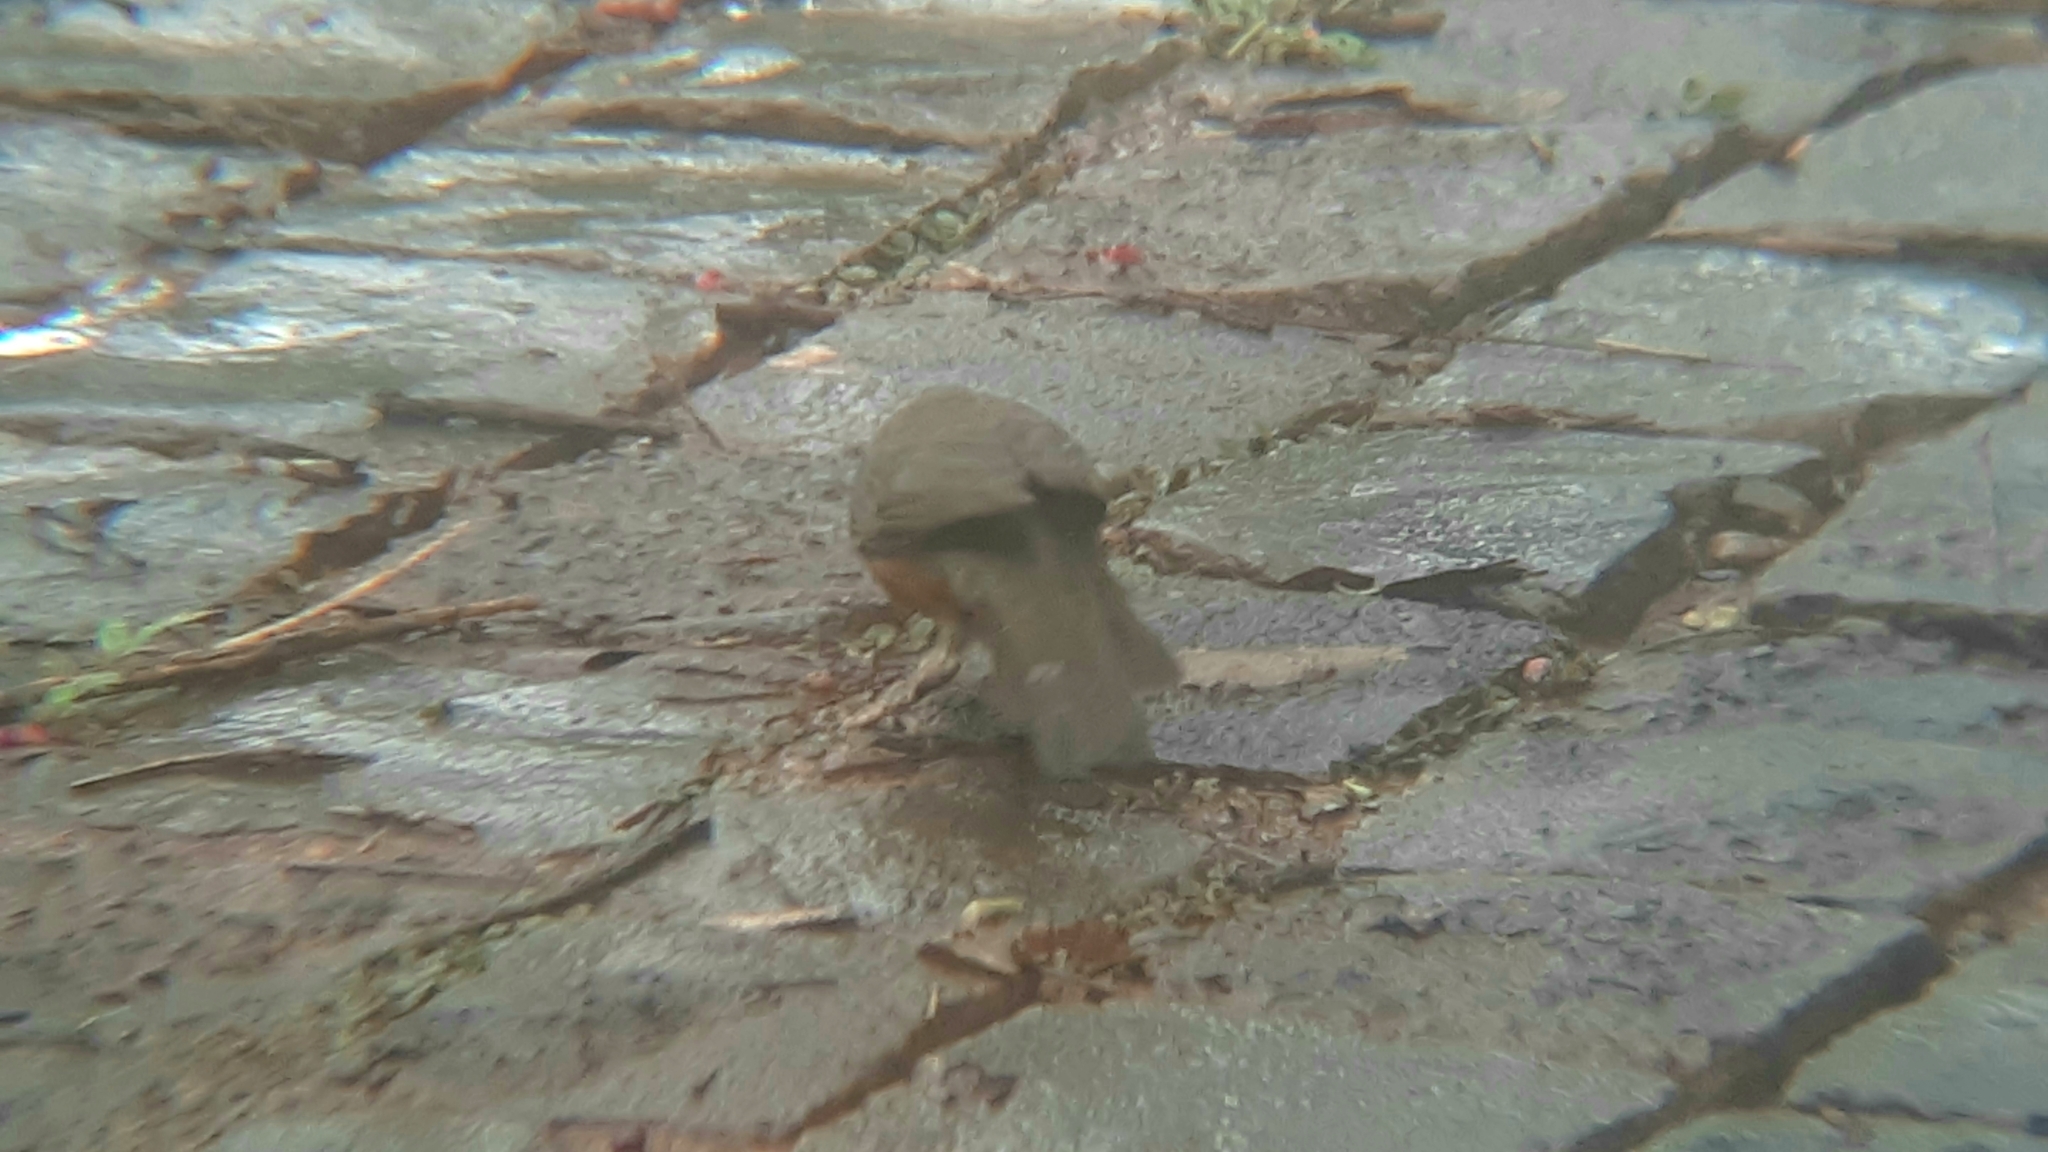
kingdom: Animalia
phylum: Chordata
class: Aves
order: Passeriformes
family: Turdidae
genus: Turdus
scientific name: Turdus rufiventris
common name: Rufous-bellied thrush
